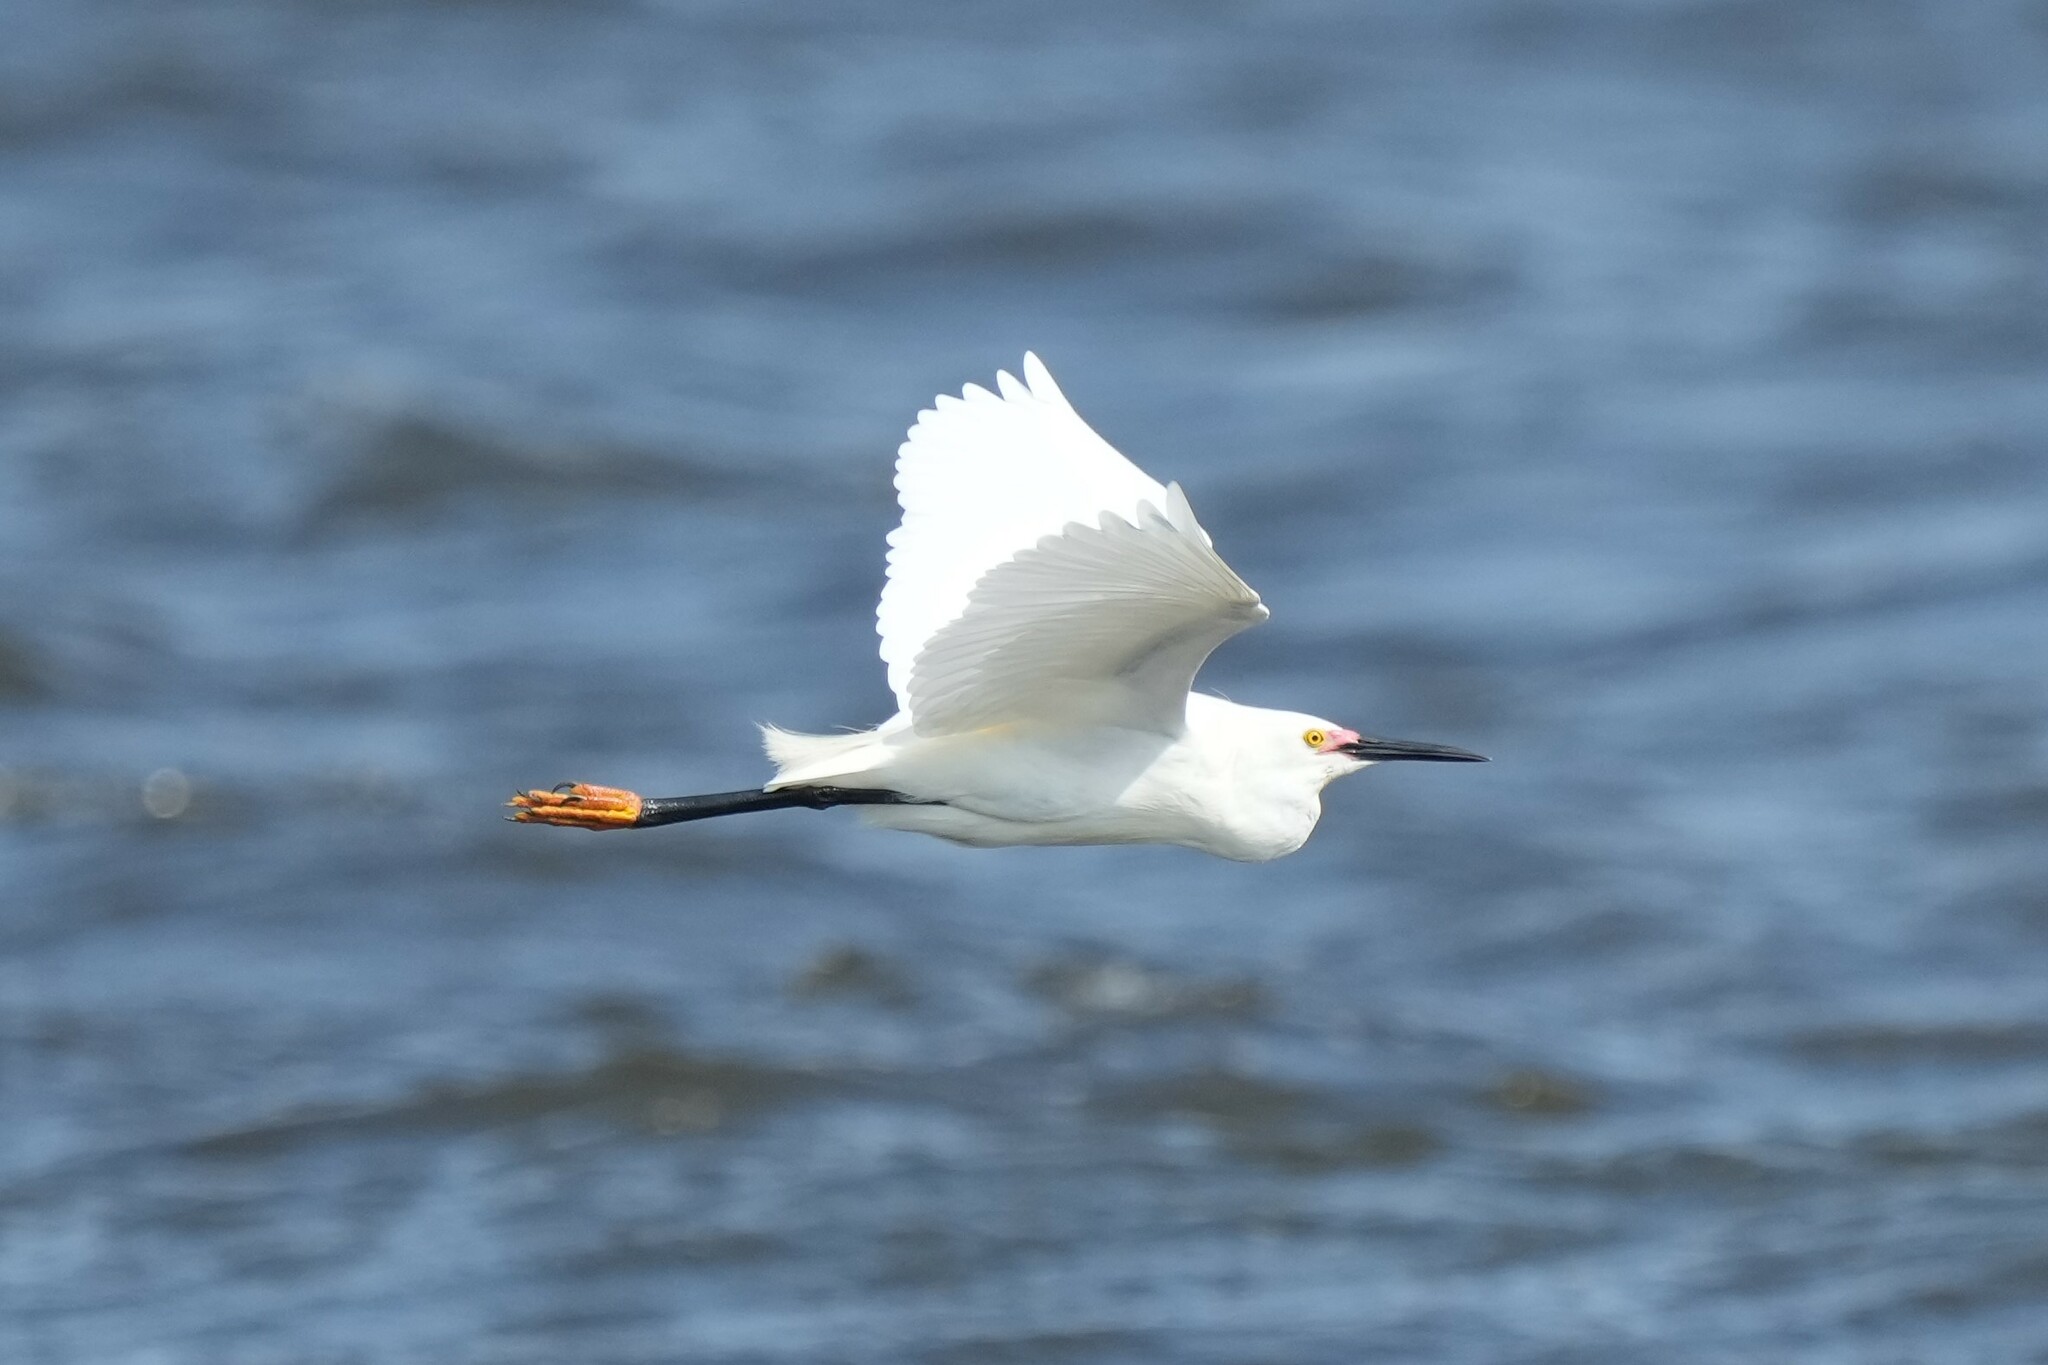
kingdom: Animalia
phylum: Chordata
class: Aves
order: Pelecaniformes
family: Ardeidae
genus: Egretta
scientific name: Egretta thula
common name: Snowy egret
